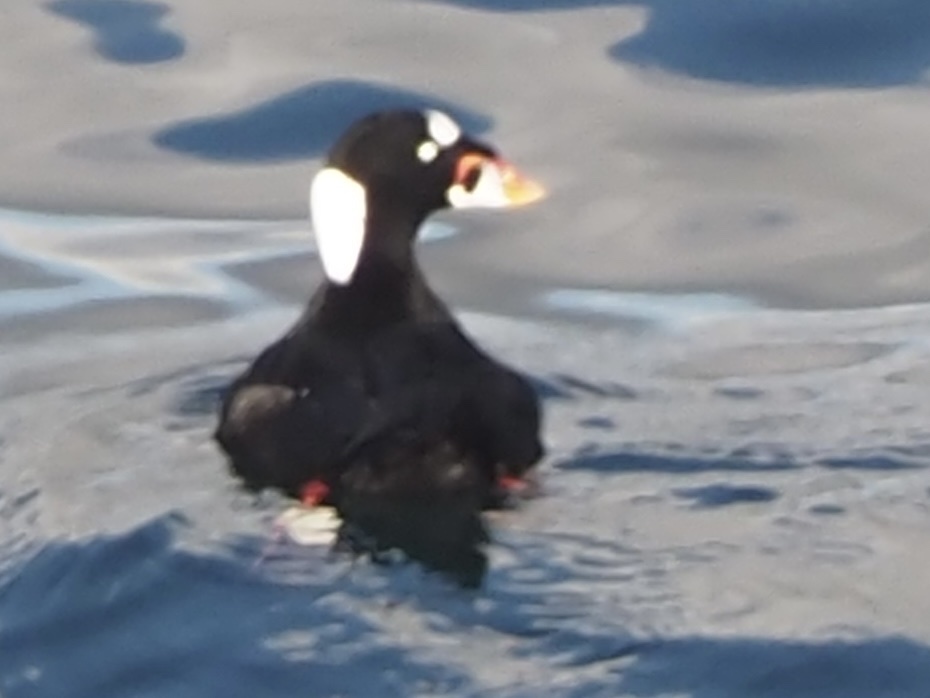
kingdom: Animalia
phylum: Chordata
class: Aves
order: Anseriformes
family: Anatidae
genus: Melanitta
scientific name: Melanitta perspicillata
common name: Surf scoter
